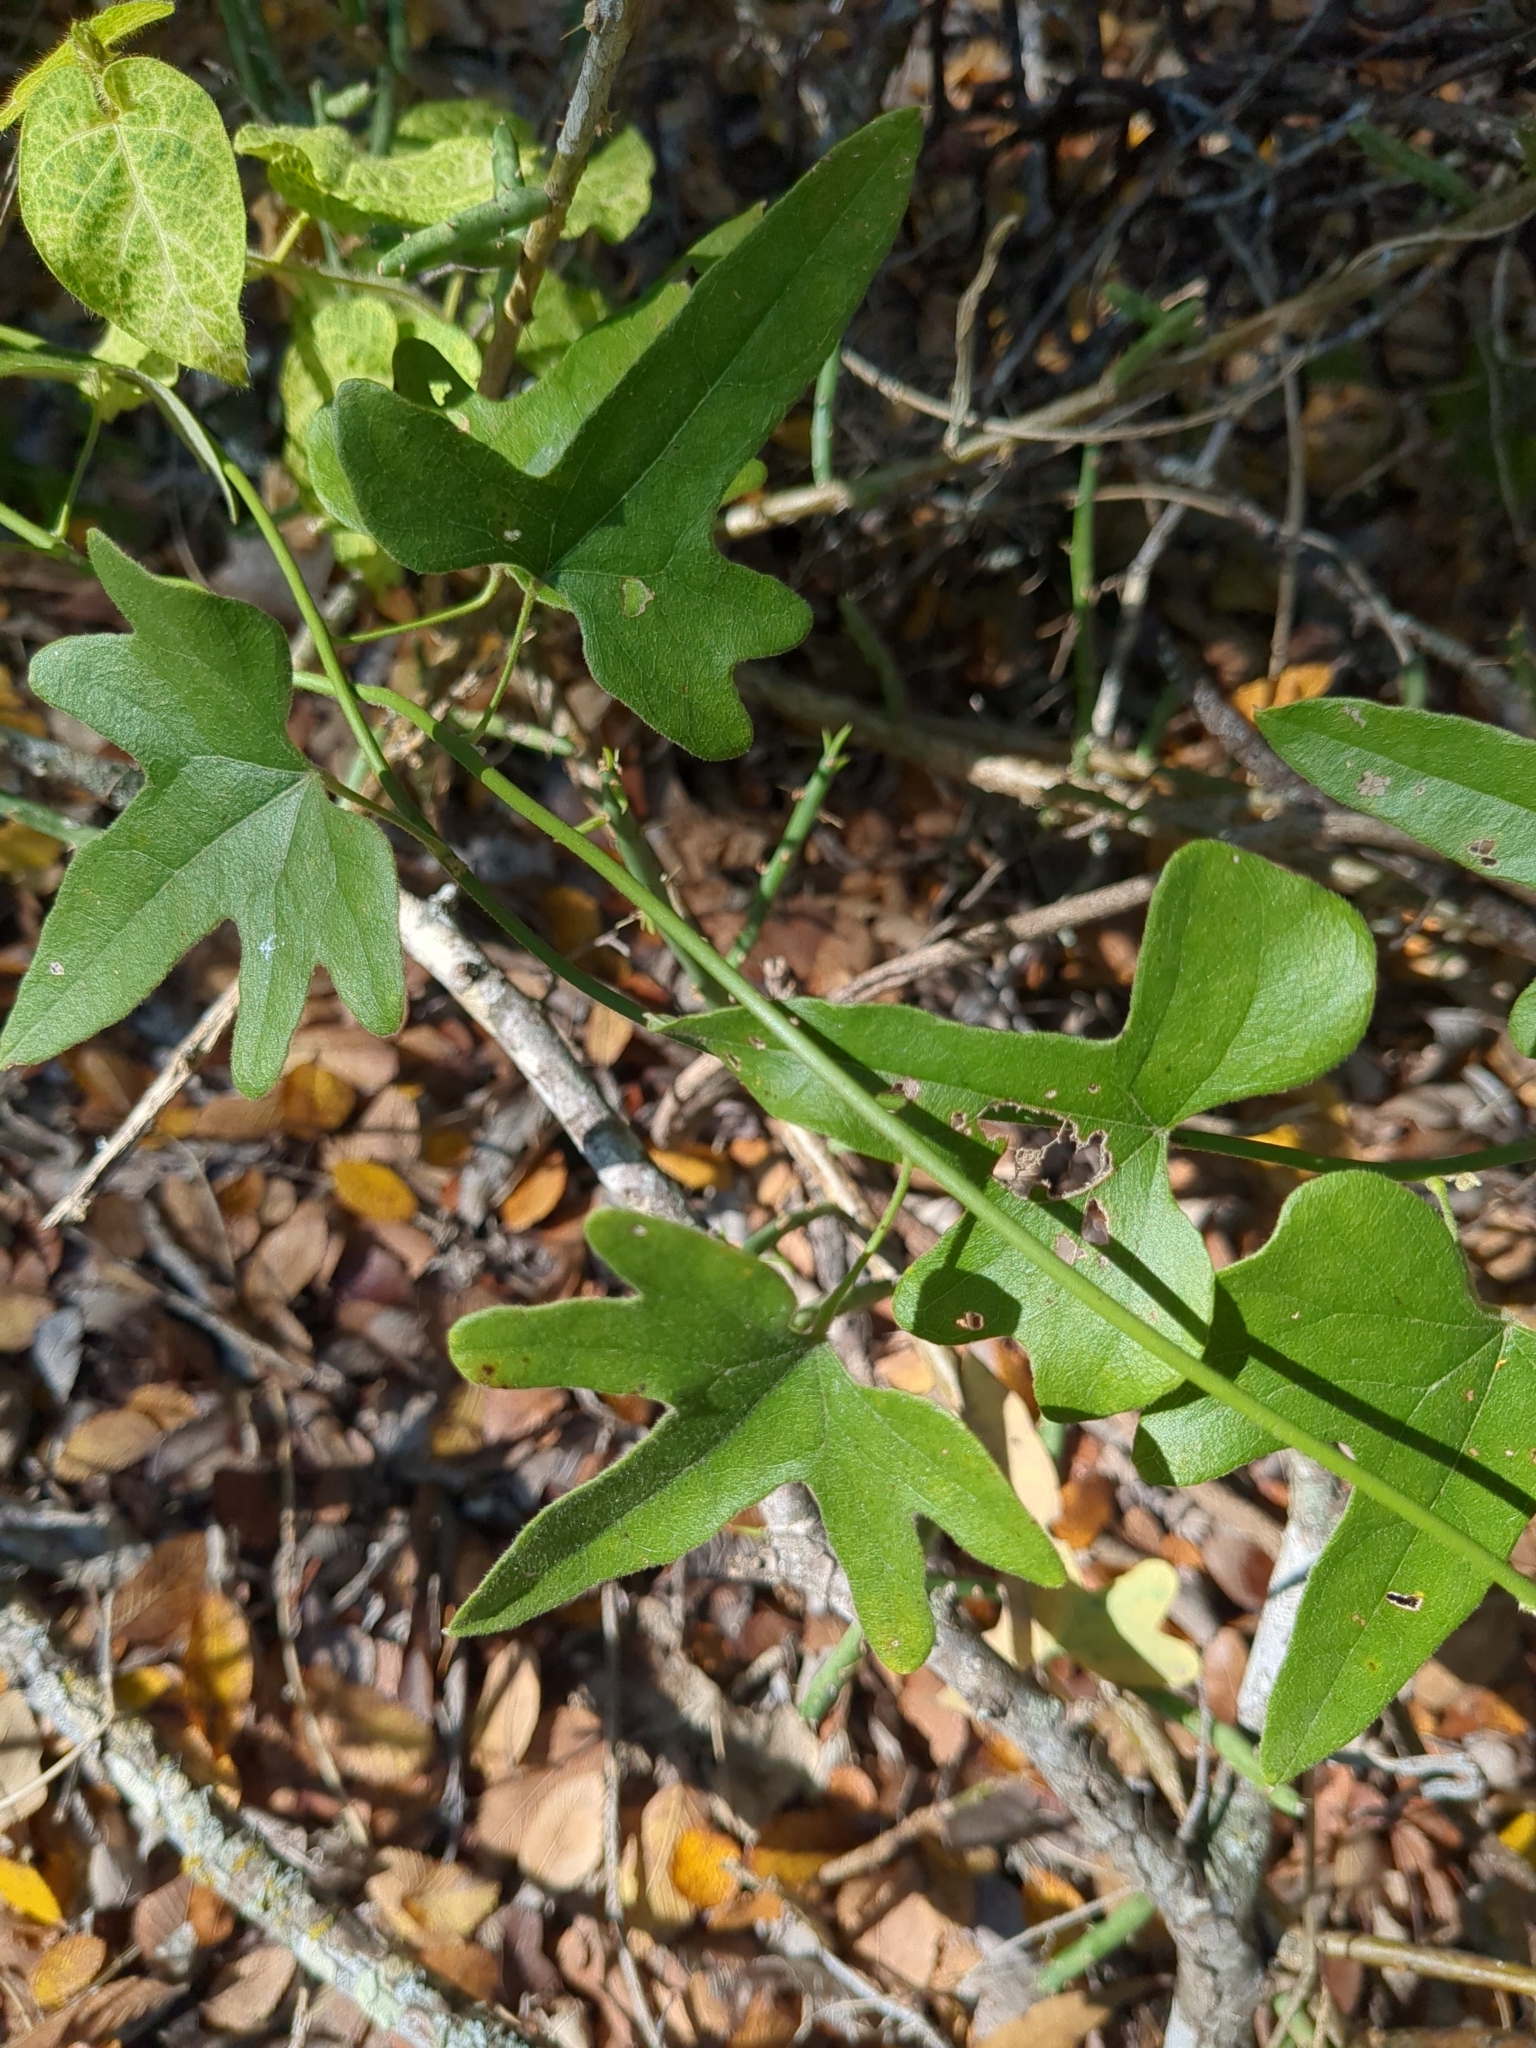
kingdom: Plantae
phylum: Tracheophyta
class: Magnoliopsida
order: Ranunculales
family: Menispermaceae
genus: Cocculus
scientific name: Cocculus carolinus
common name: Carolina moonseed
